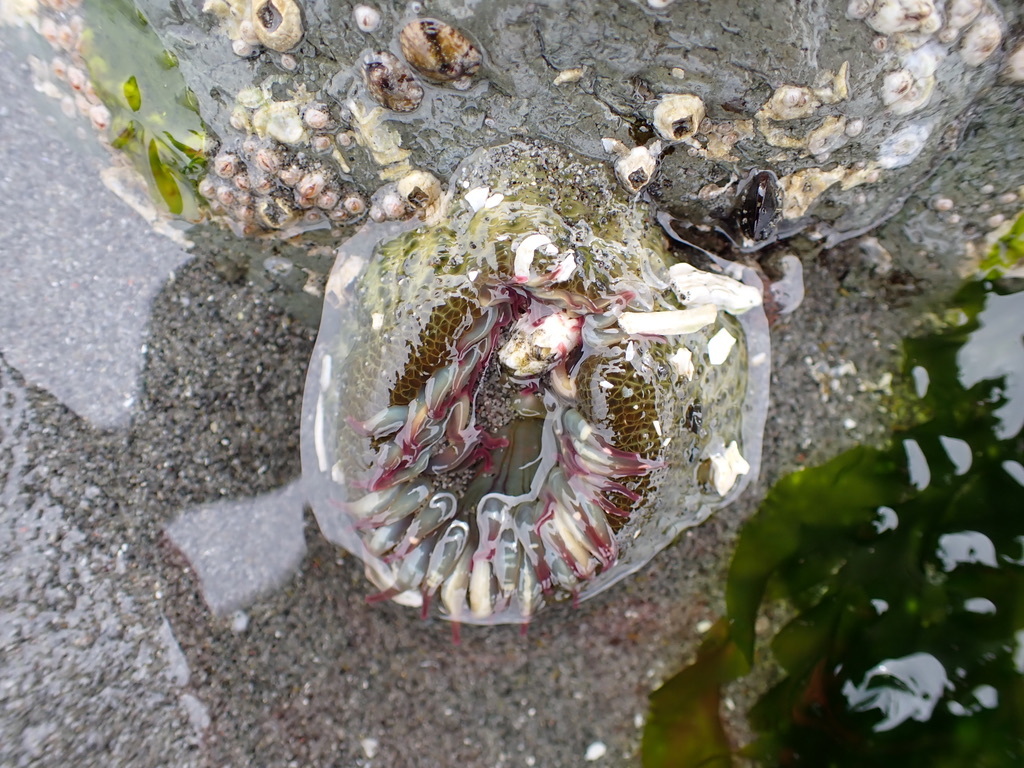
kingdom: Animalia
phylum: Cnidaria
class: Anthozoa
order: Actiniaria
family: Actiniidae
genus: Anthopleura
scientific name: Anthopleura elegantissima
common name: Clonal anemone
